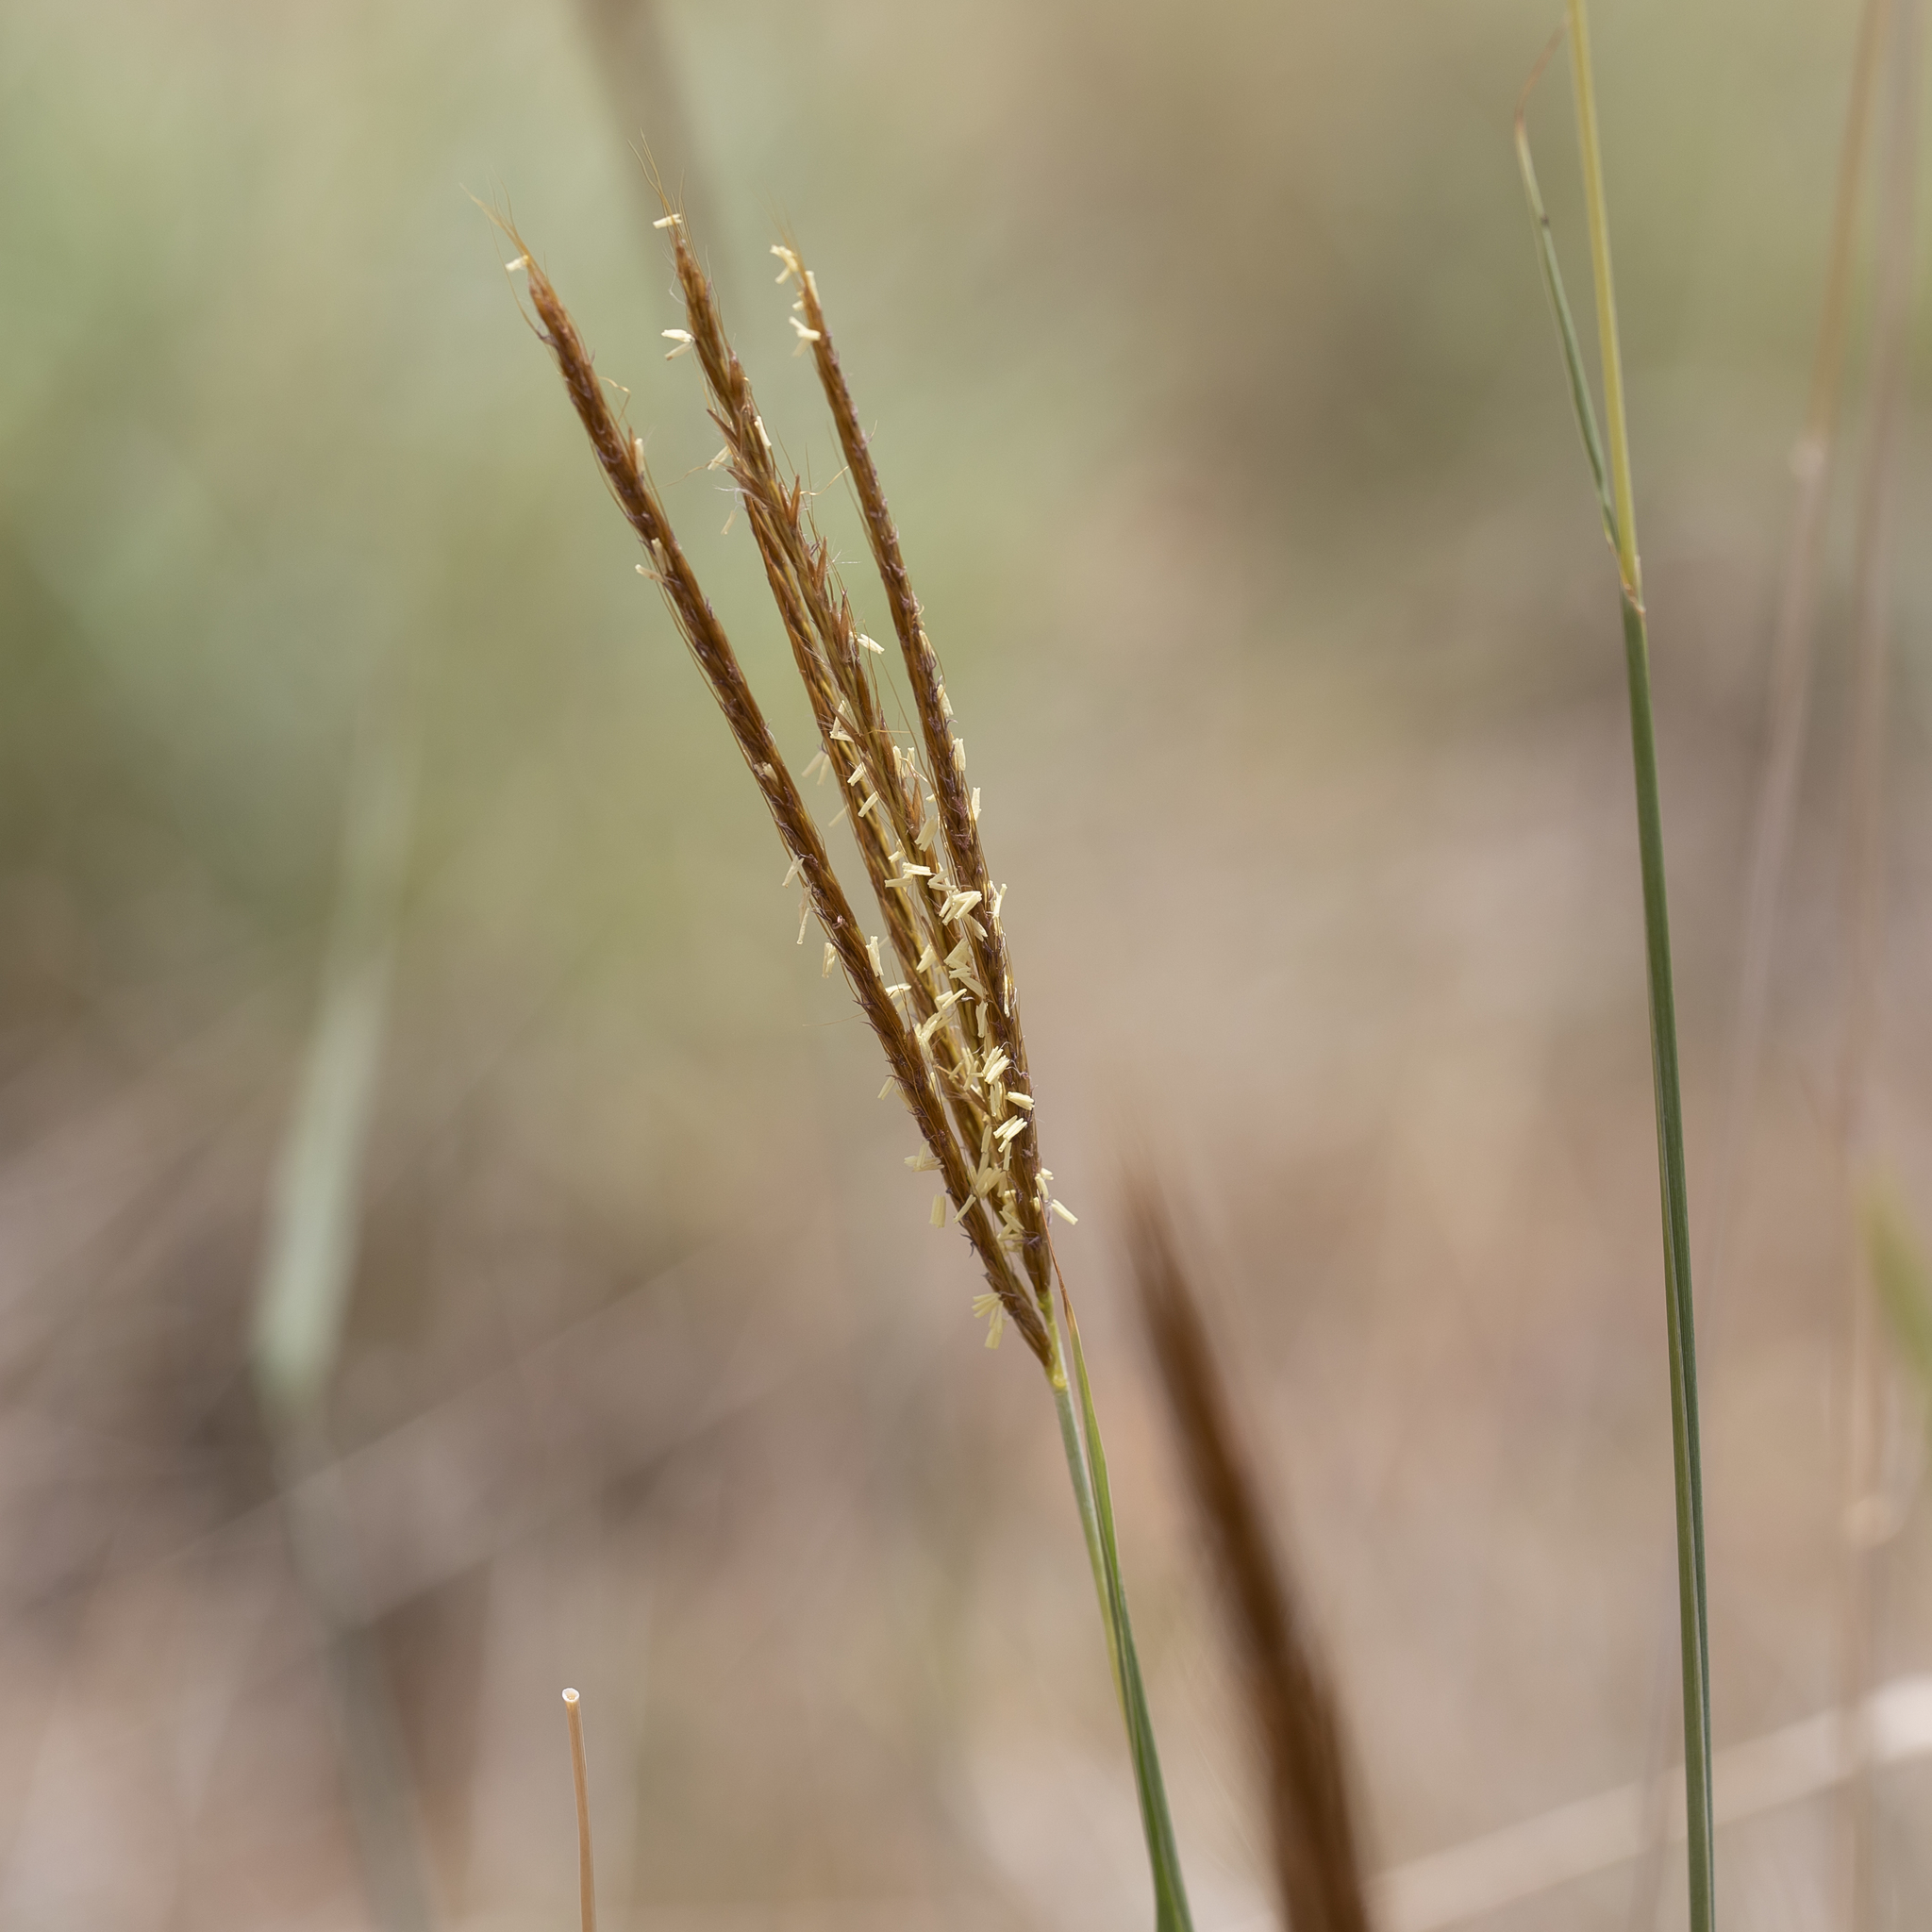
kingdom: Plantae
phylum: Tracheophyta
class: Liliopsida
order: Poales
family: Poaceae
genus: Eulalia
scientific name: Eulalia aurea
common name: Silky browntop
